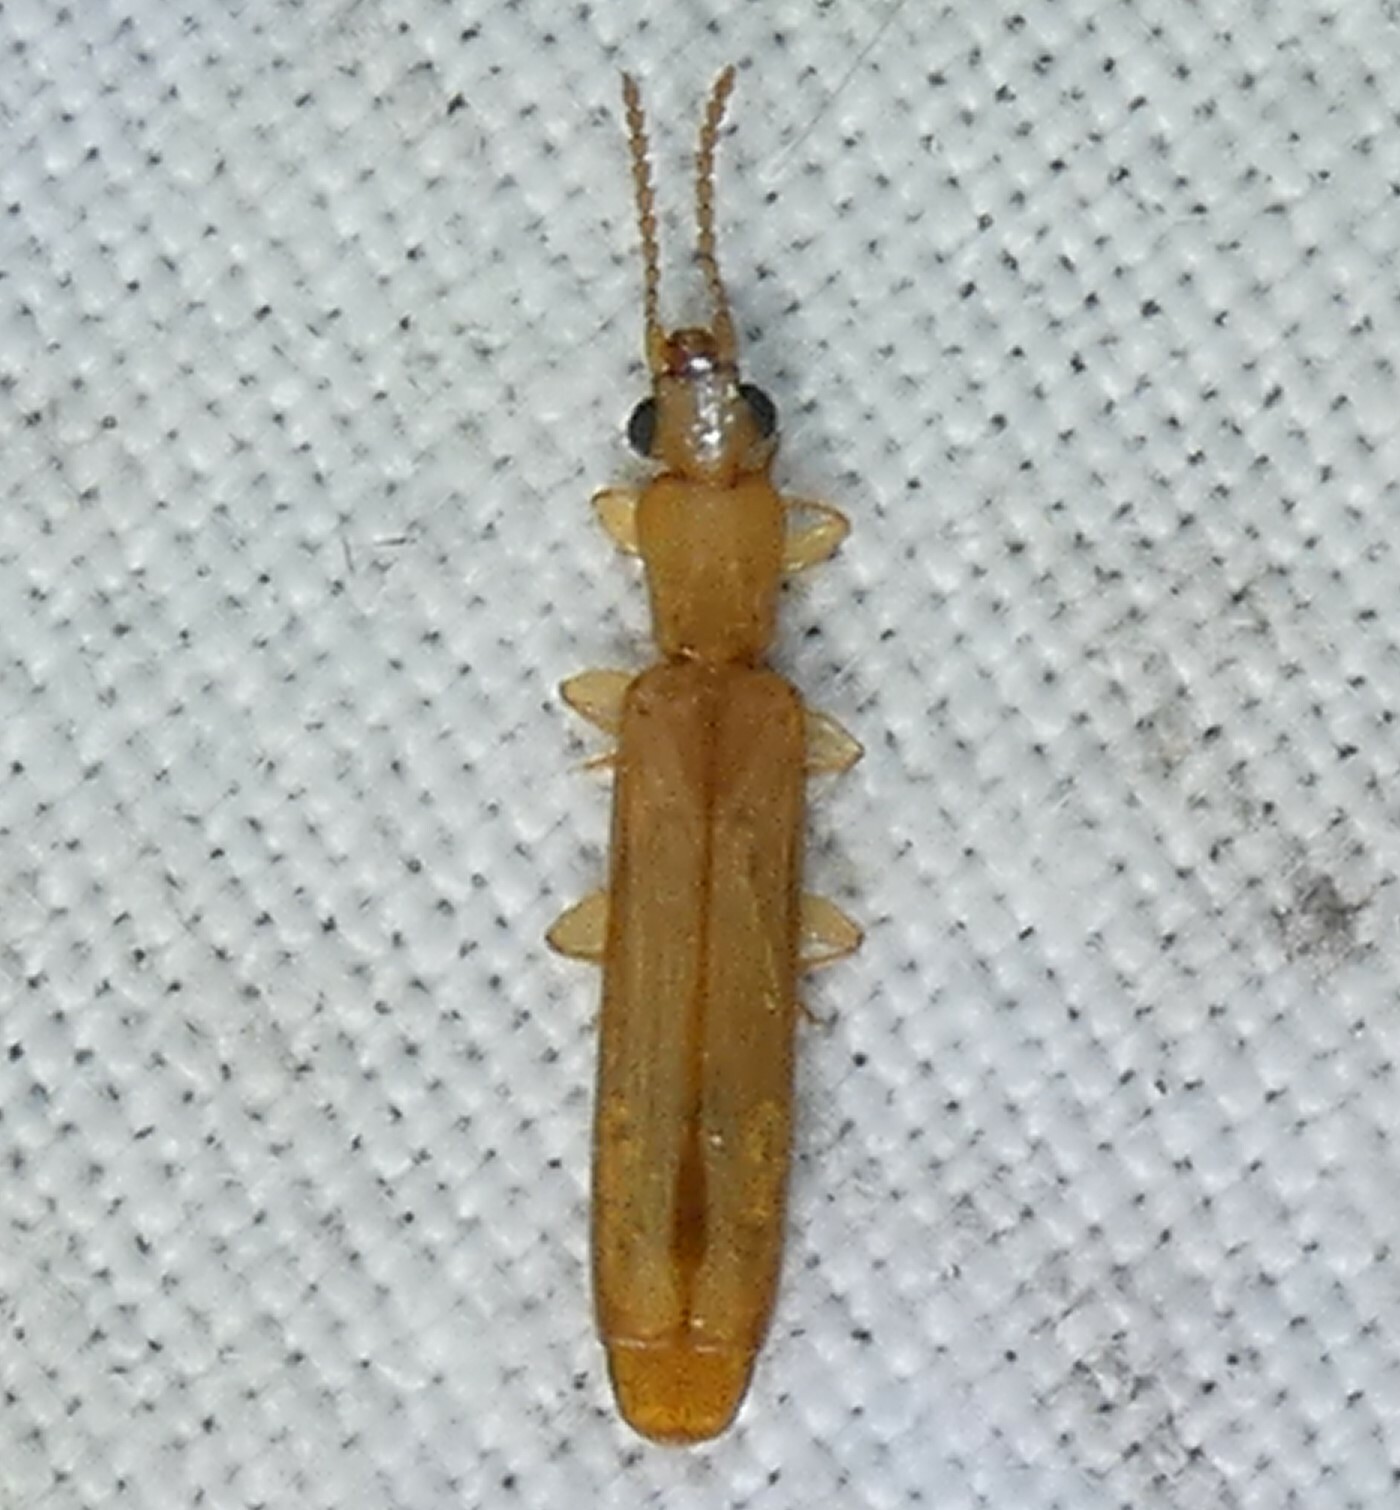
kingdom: Animalia
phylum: Arthropoda
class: Insecta
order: Coleoptera
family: Mycteridae
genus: Hemipeplus
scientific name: Hemipeplus marginipennis
